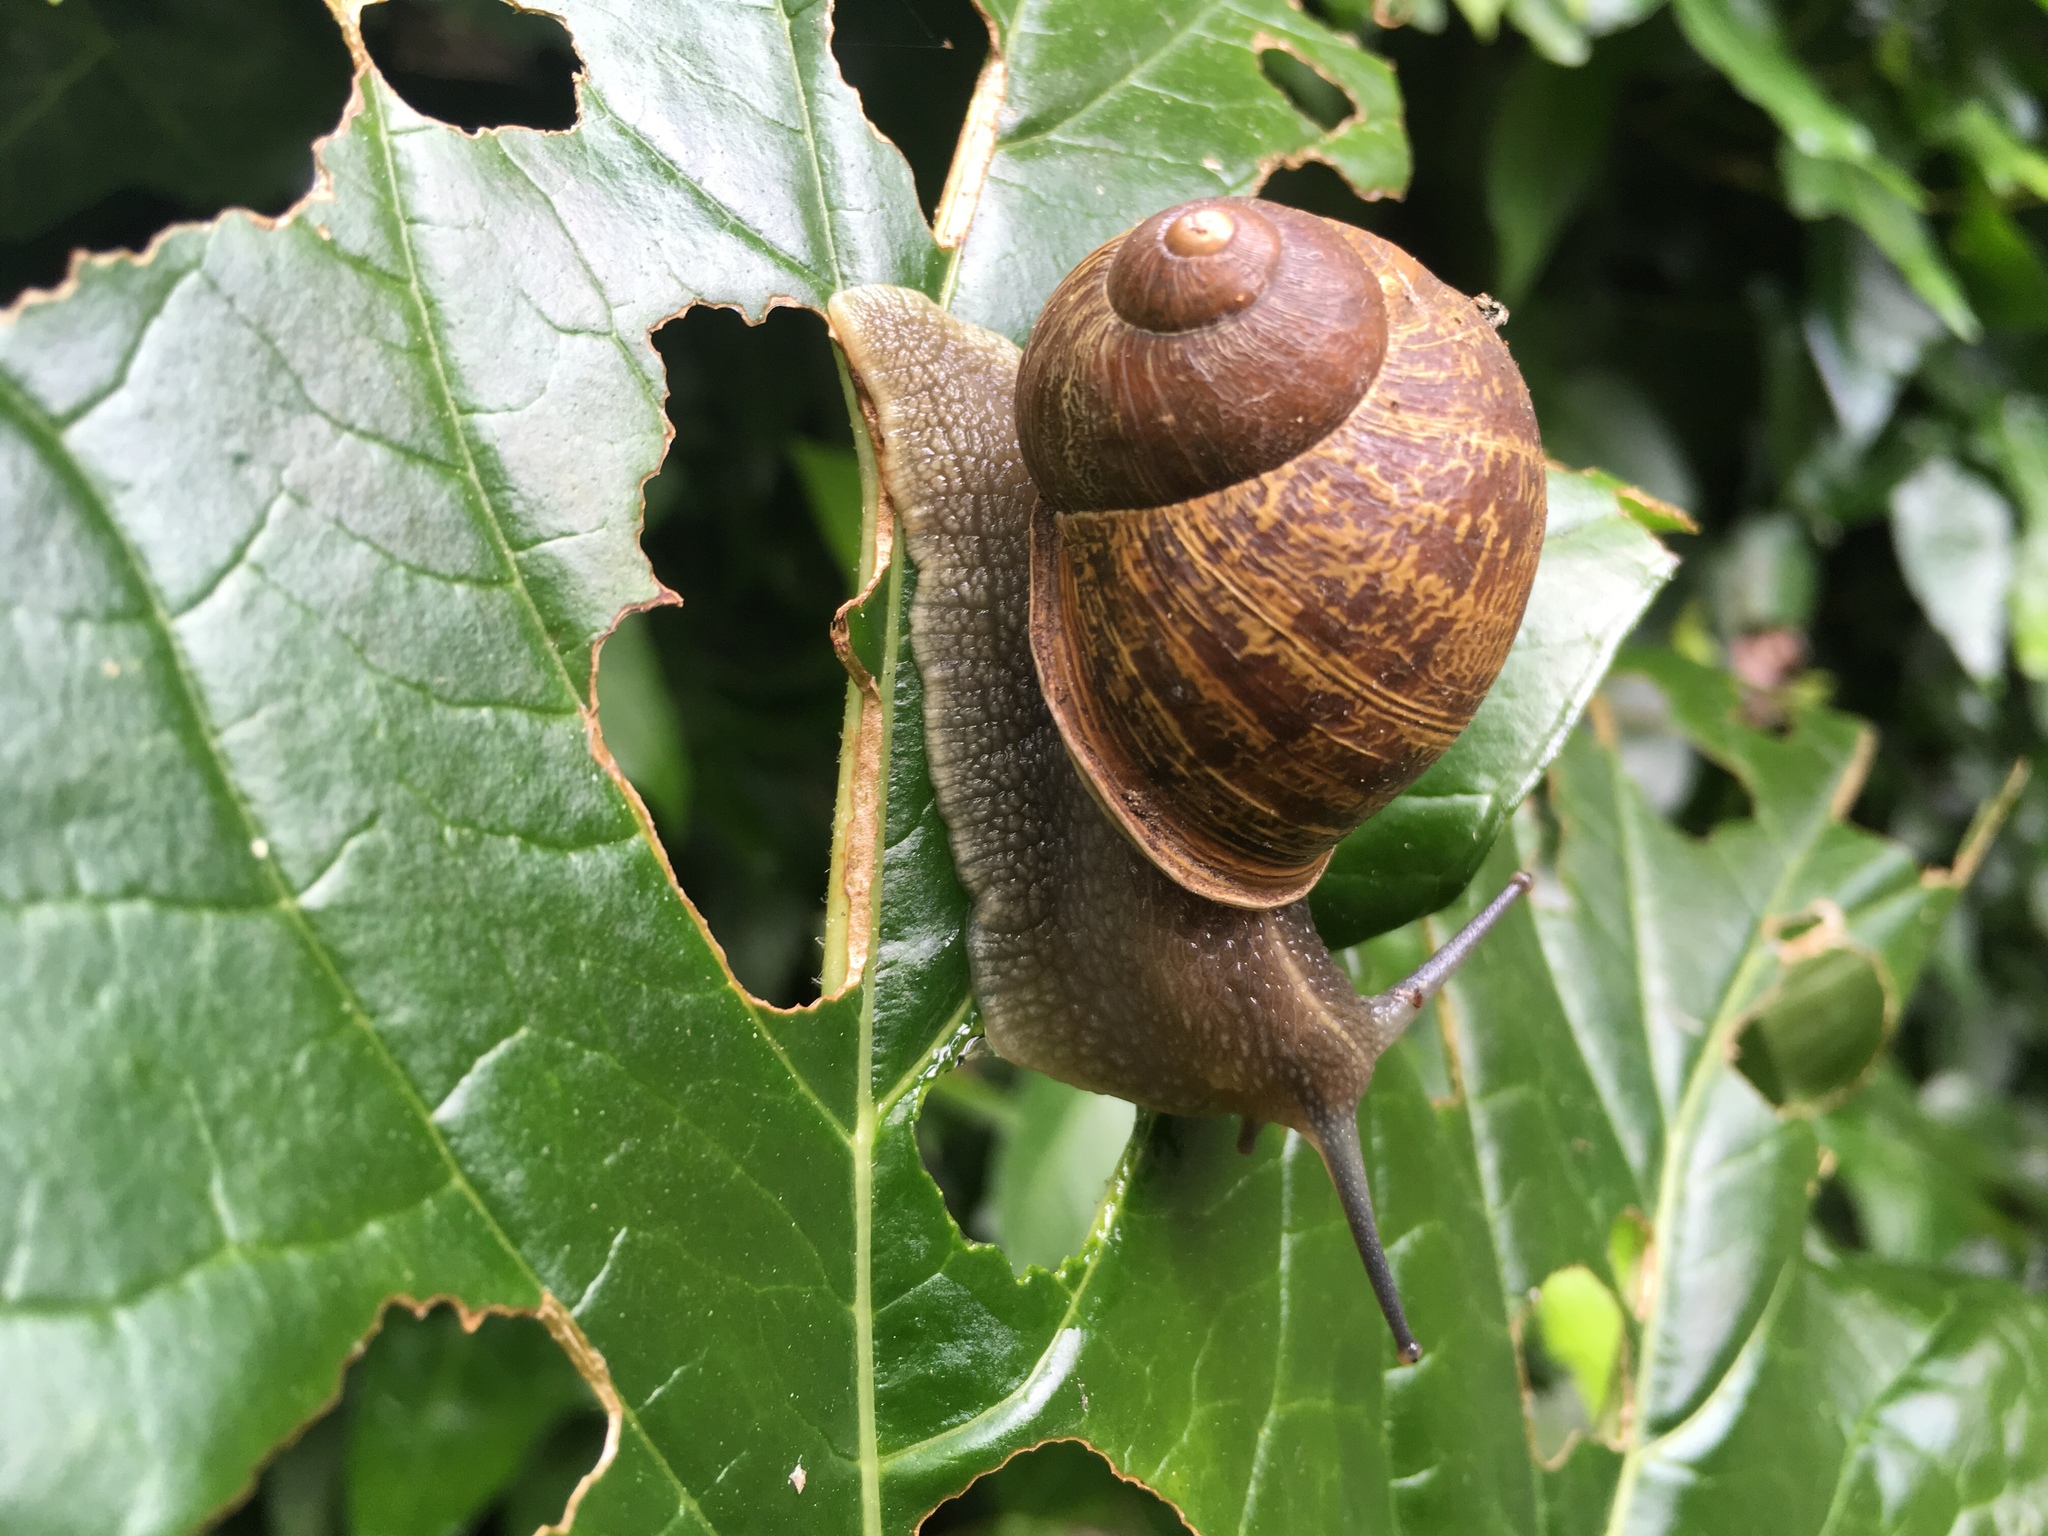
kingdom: Animalia
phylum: Mollusca
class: Gastropoda
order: Stylommatophora
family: Helicidae
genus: Cornu
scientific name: Cornu aspersum
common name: Brown garden snail
